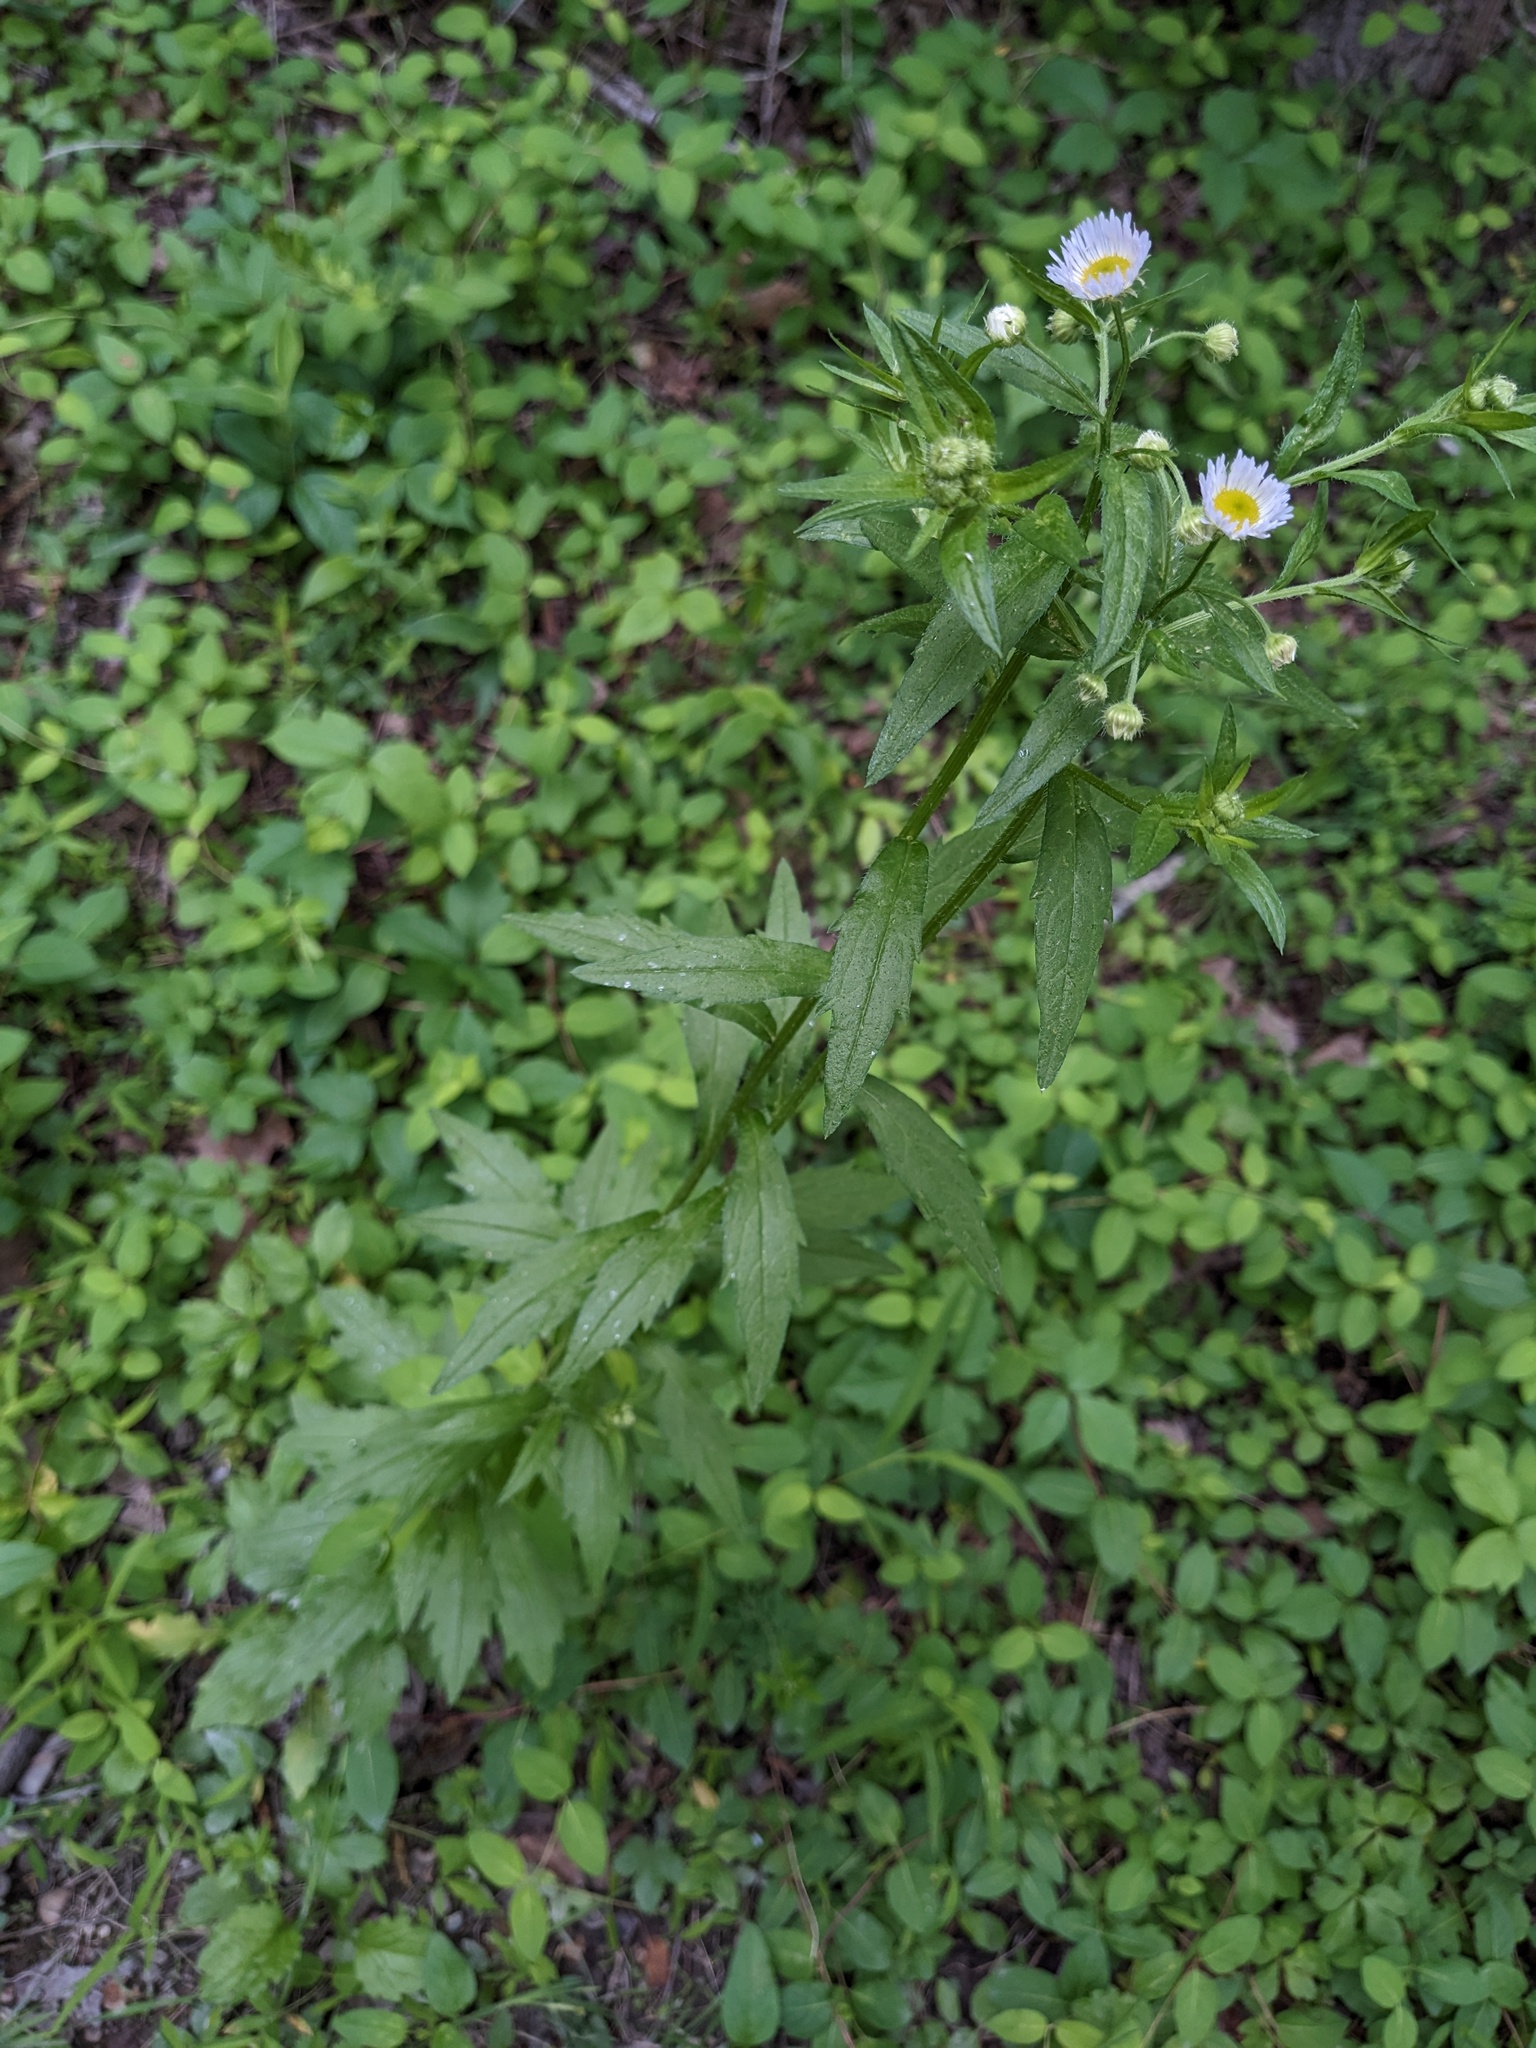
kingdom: Plantae
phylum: Tracheophyta
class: Magnoliopsida
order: Asterales
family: Asteraceae
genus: Erigeron
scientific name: Erigeron annuus
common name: Tall fleabane
